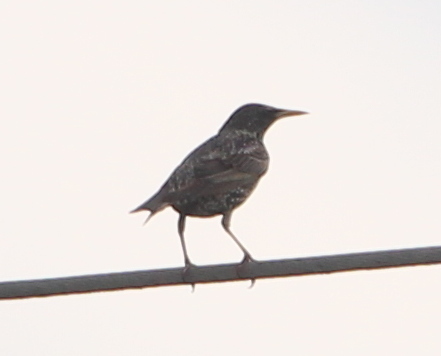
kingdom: Animalia
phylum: Chordata
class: Aves
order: Passeriformes
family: Sturnidae
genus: Sturnus
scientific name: Sturnus vulgaris
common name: Common starling
